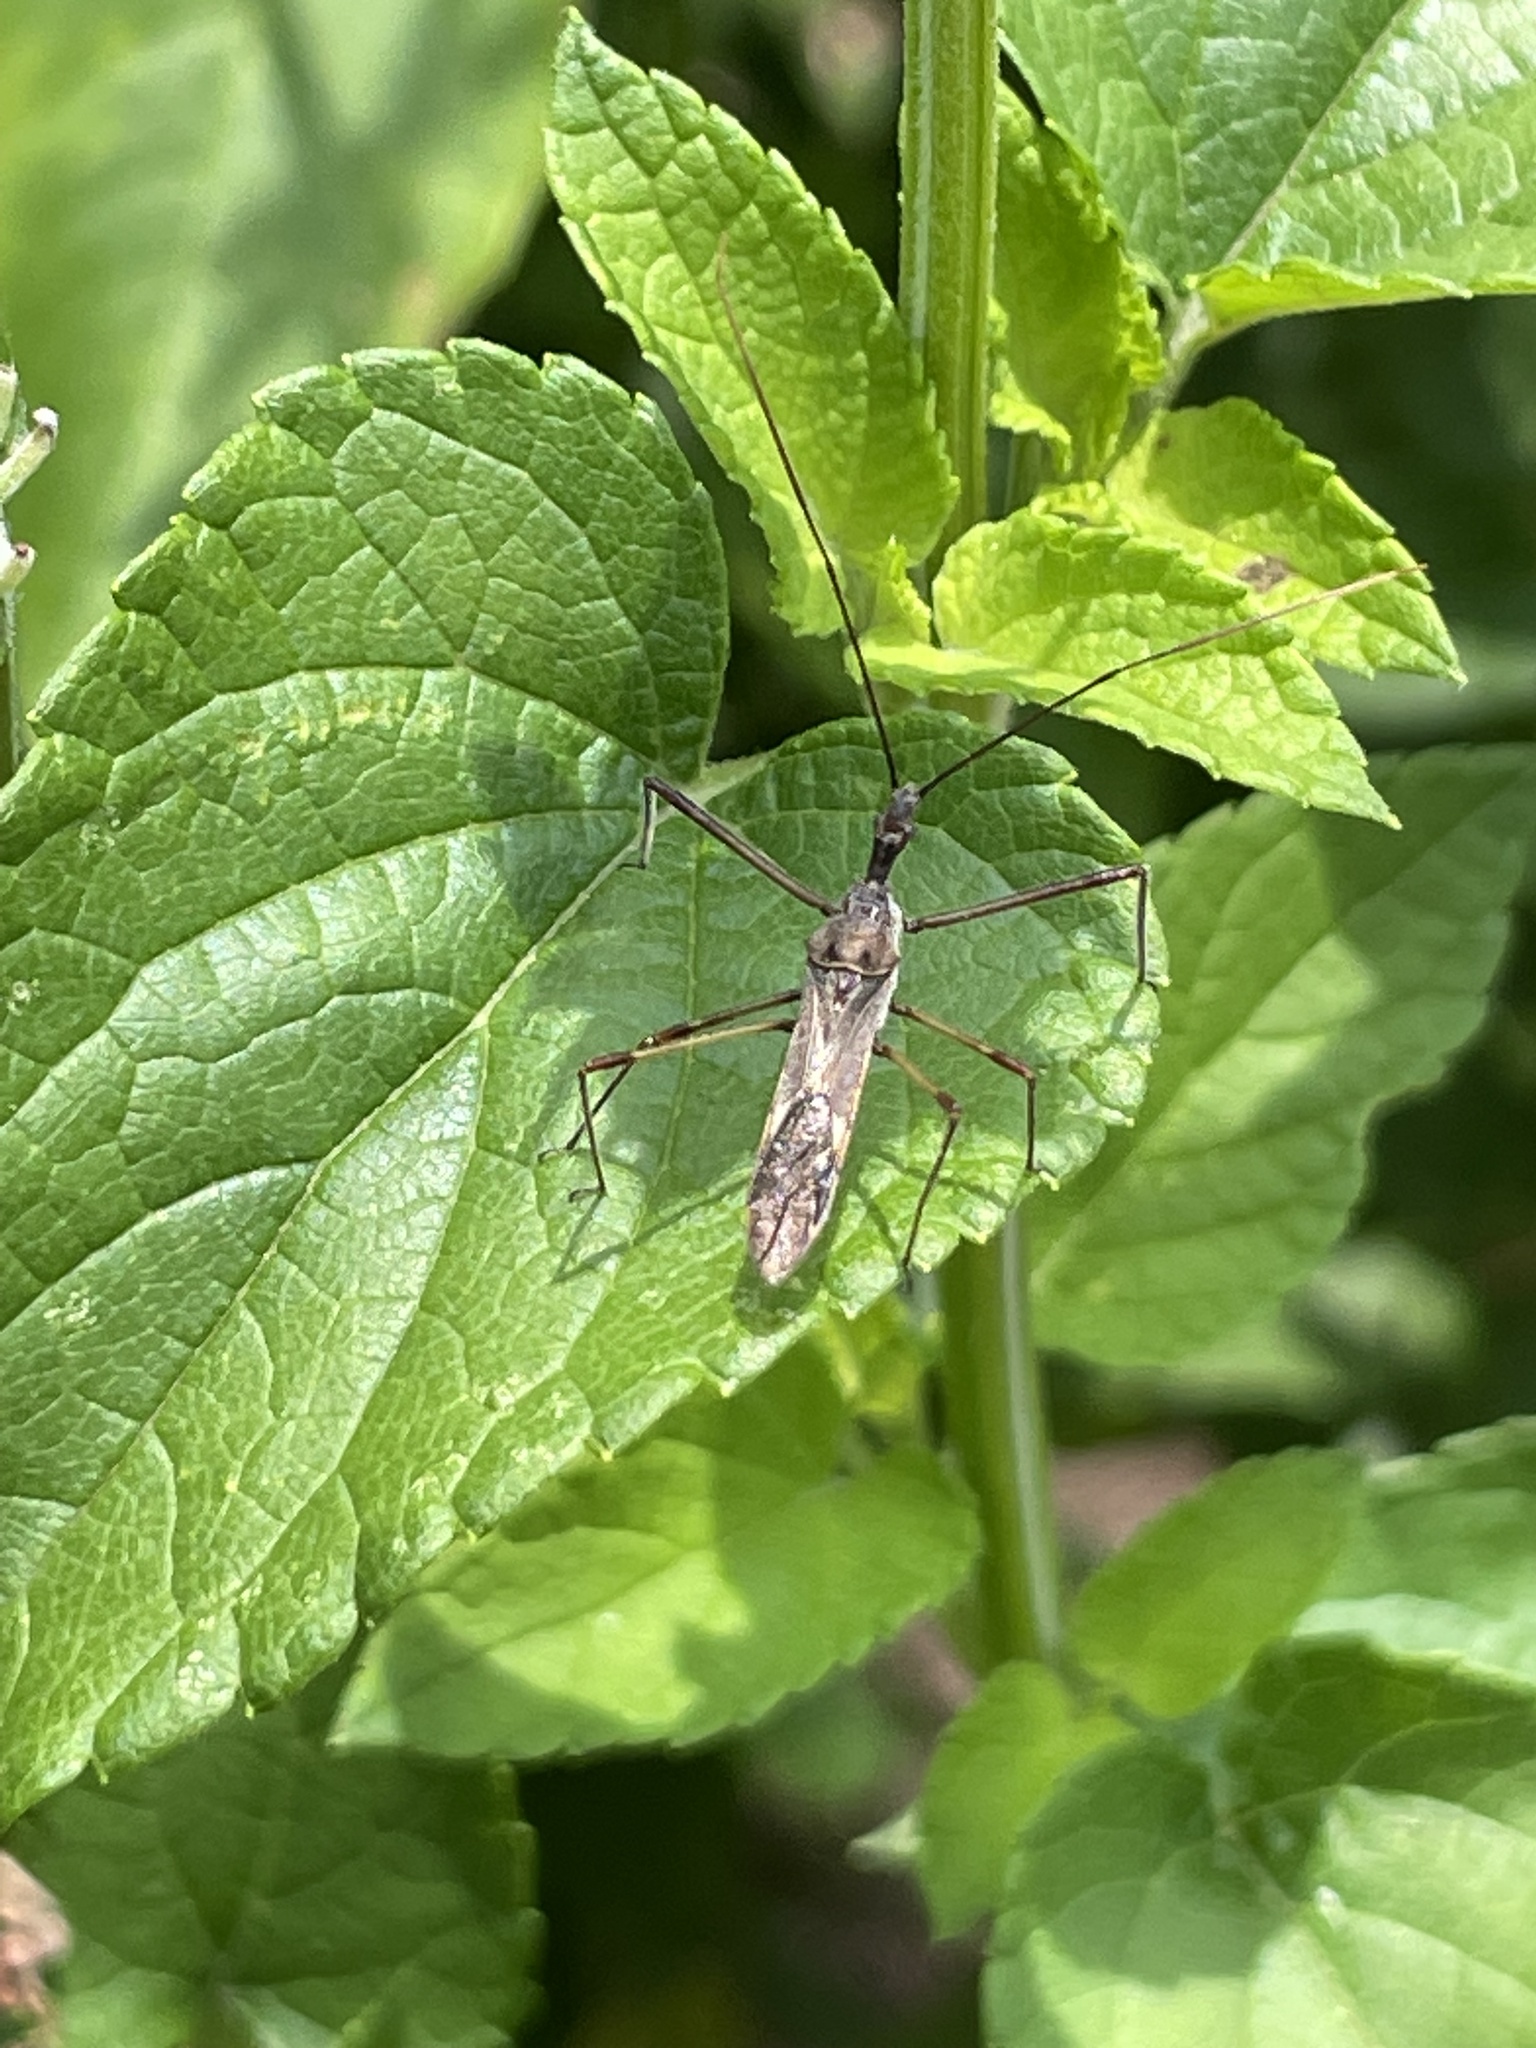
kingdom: Animalia
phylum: Arthropoda
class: Insecta
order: Hemiptera
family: Reduviidae
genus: Zelus
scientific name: Zelus tetracanthus
